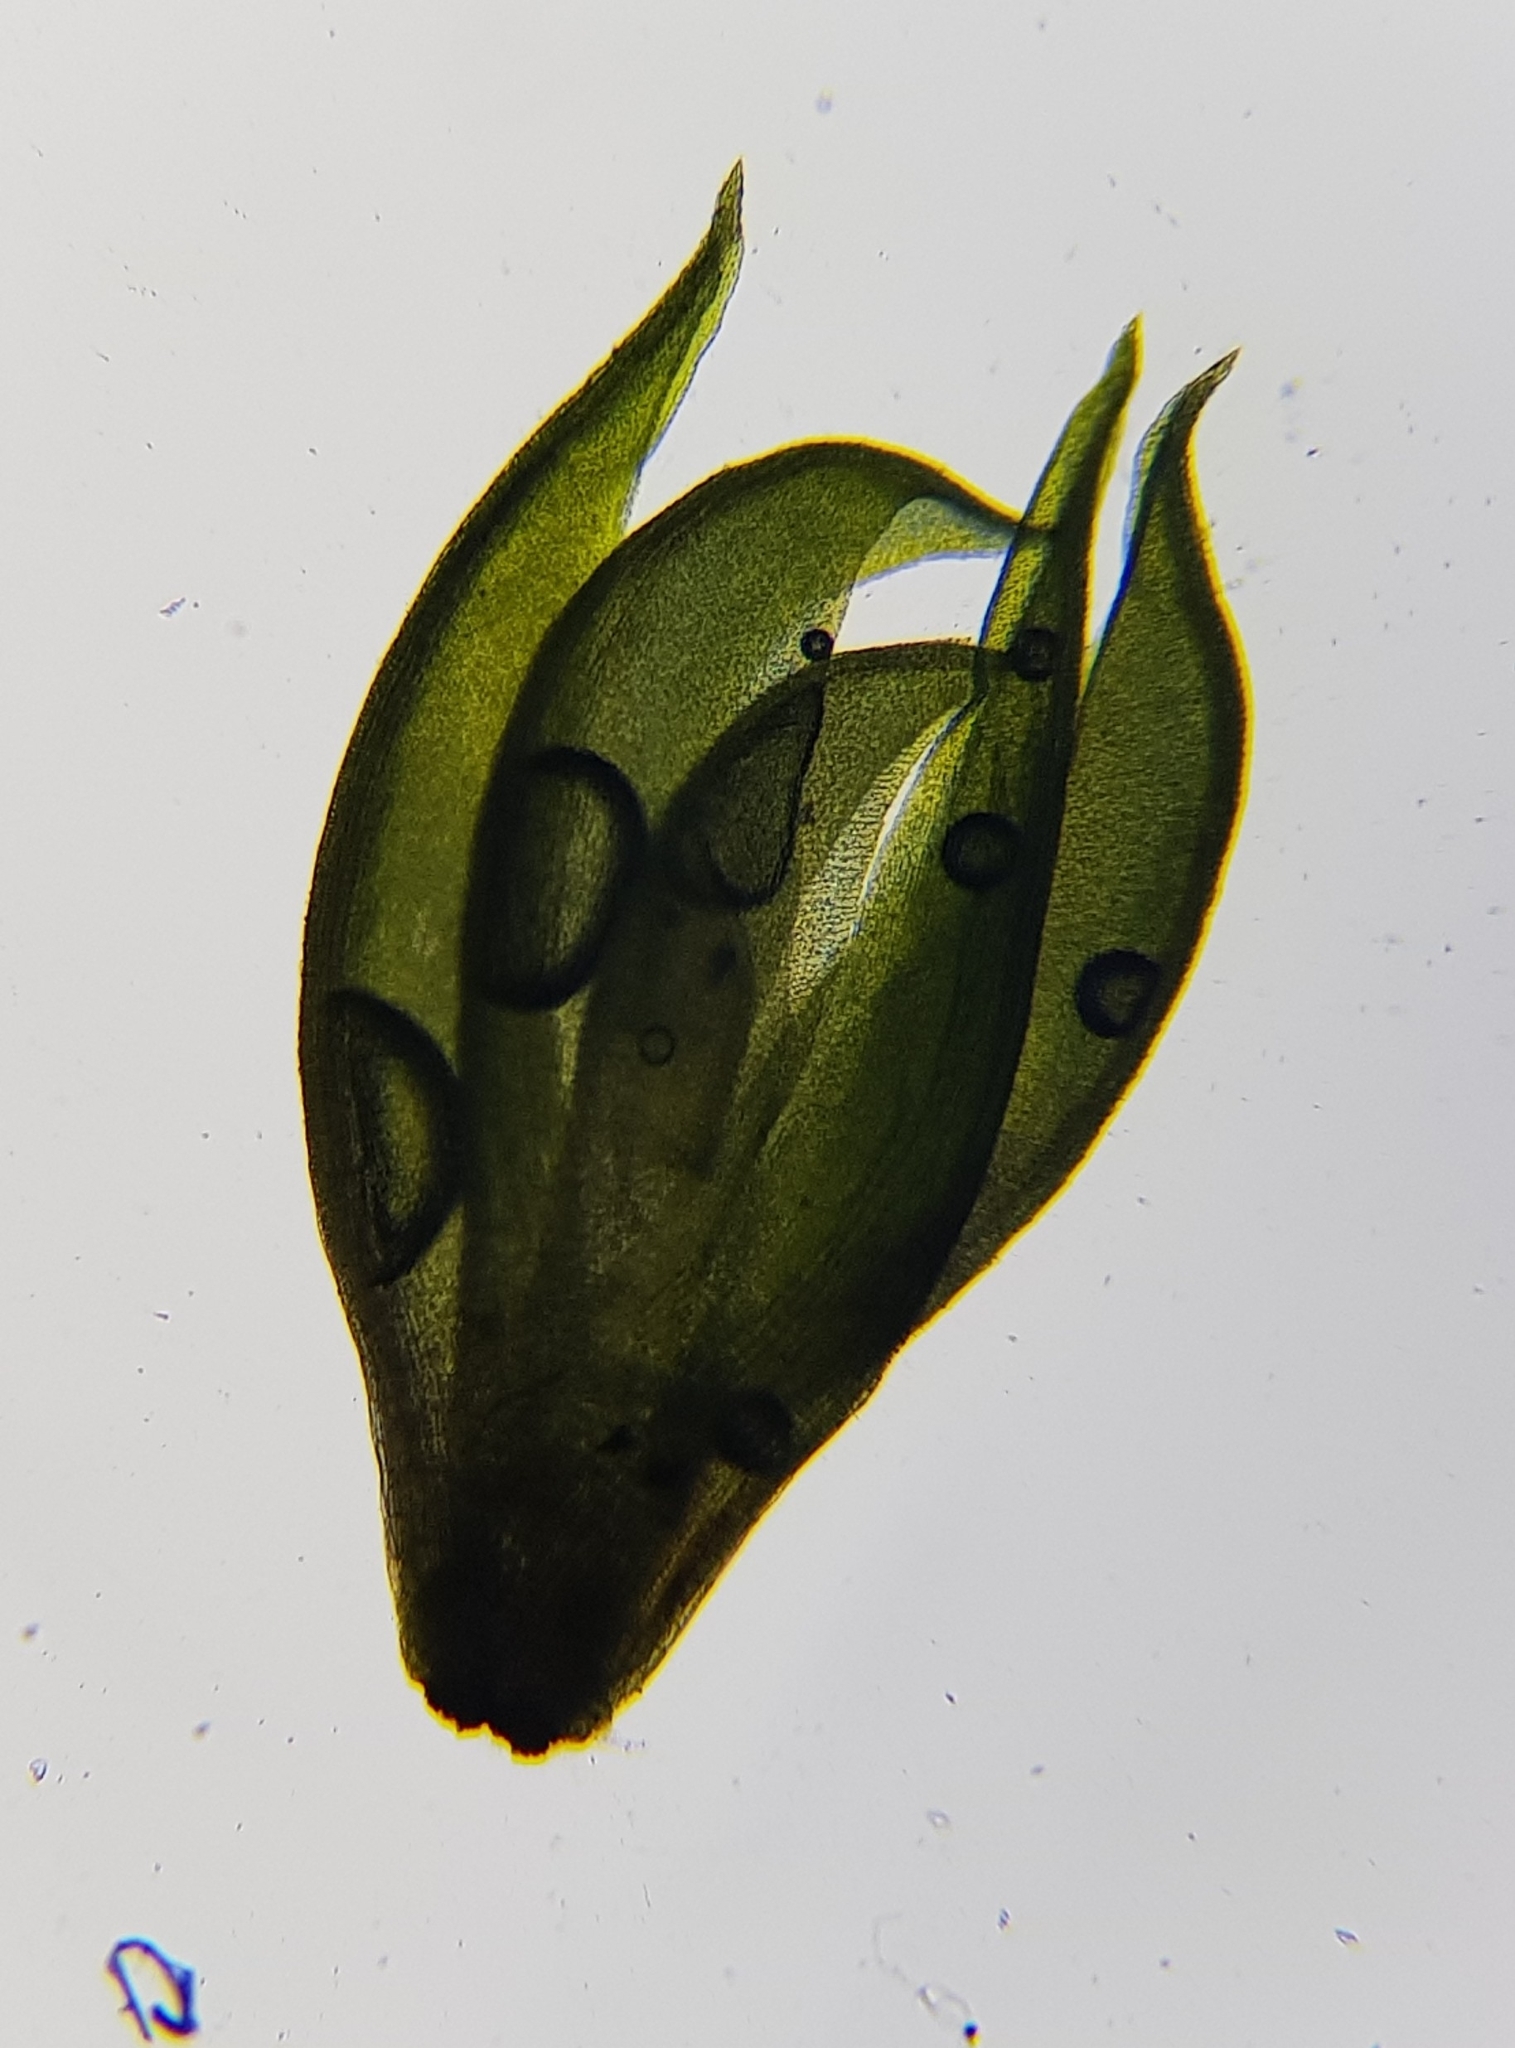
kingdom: Plantae
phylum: Bryophyta
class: Bryopsida
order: Dicranales
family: Leucobryaceae
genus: Campylopus
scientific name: Campylopus flexuosus
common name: Rusty swan-neck moss
